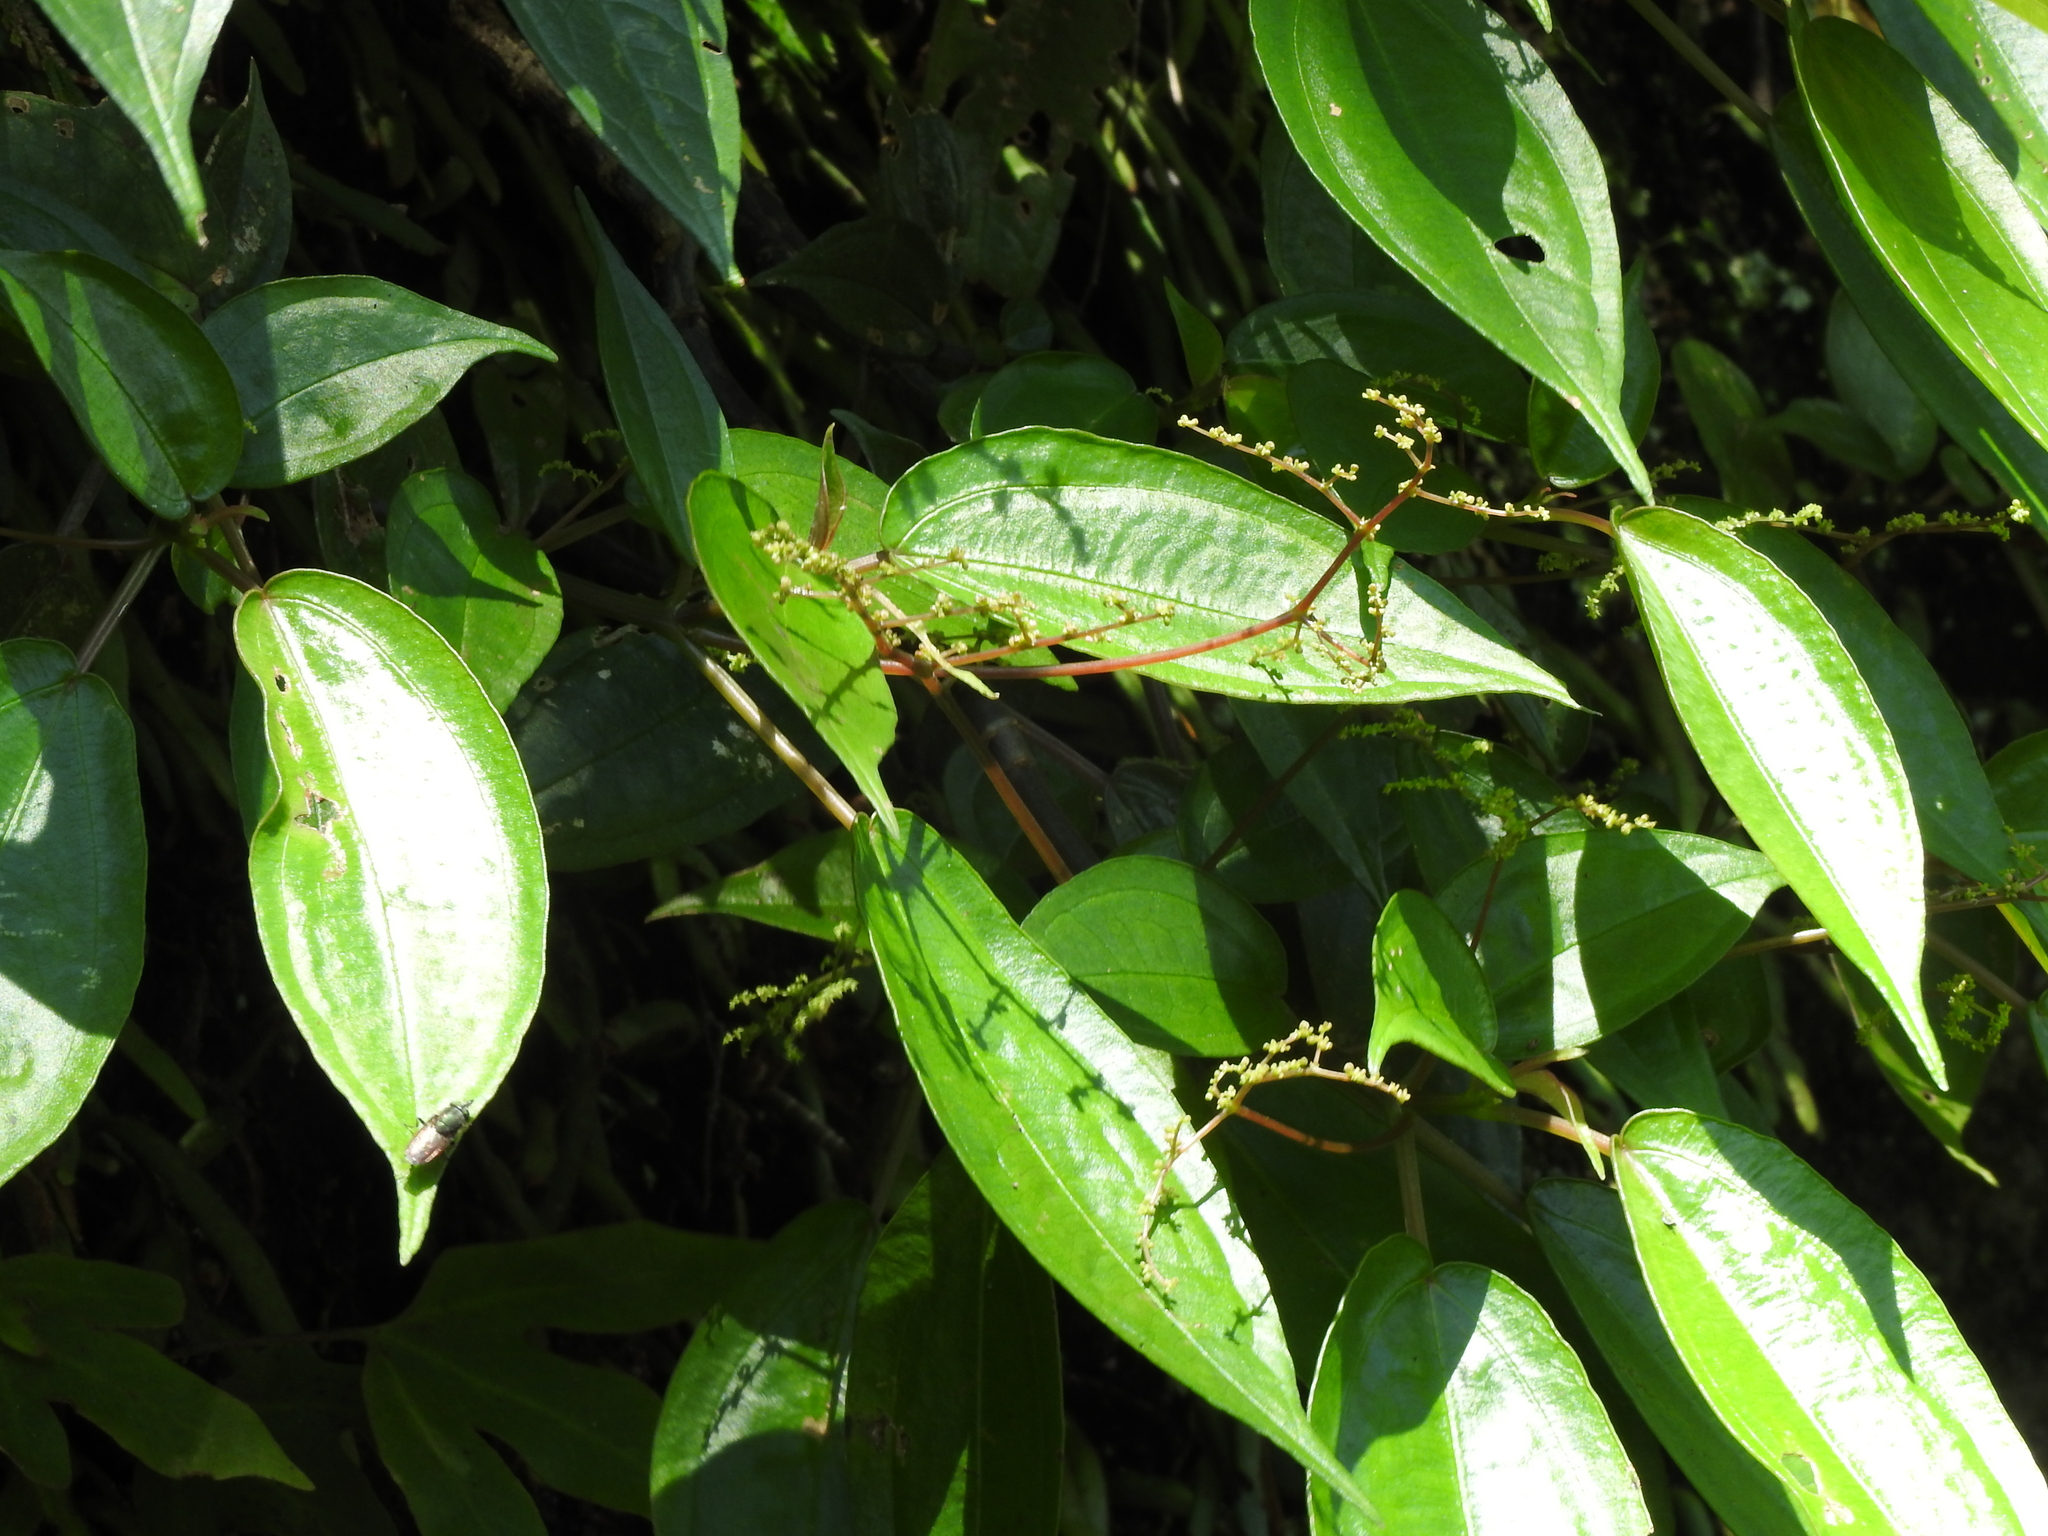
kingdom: Plantae
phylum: Tracheophyta
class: Magnoliopsida
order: Rosales
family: Urticaceae
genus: Pilea
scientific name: Pilea plataniflora
